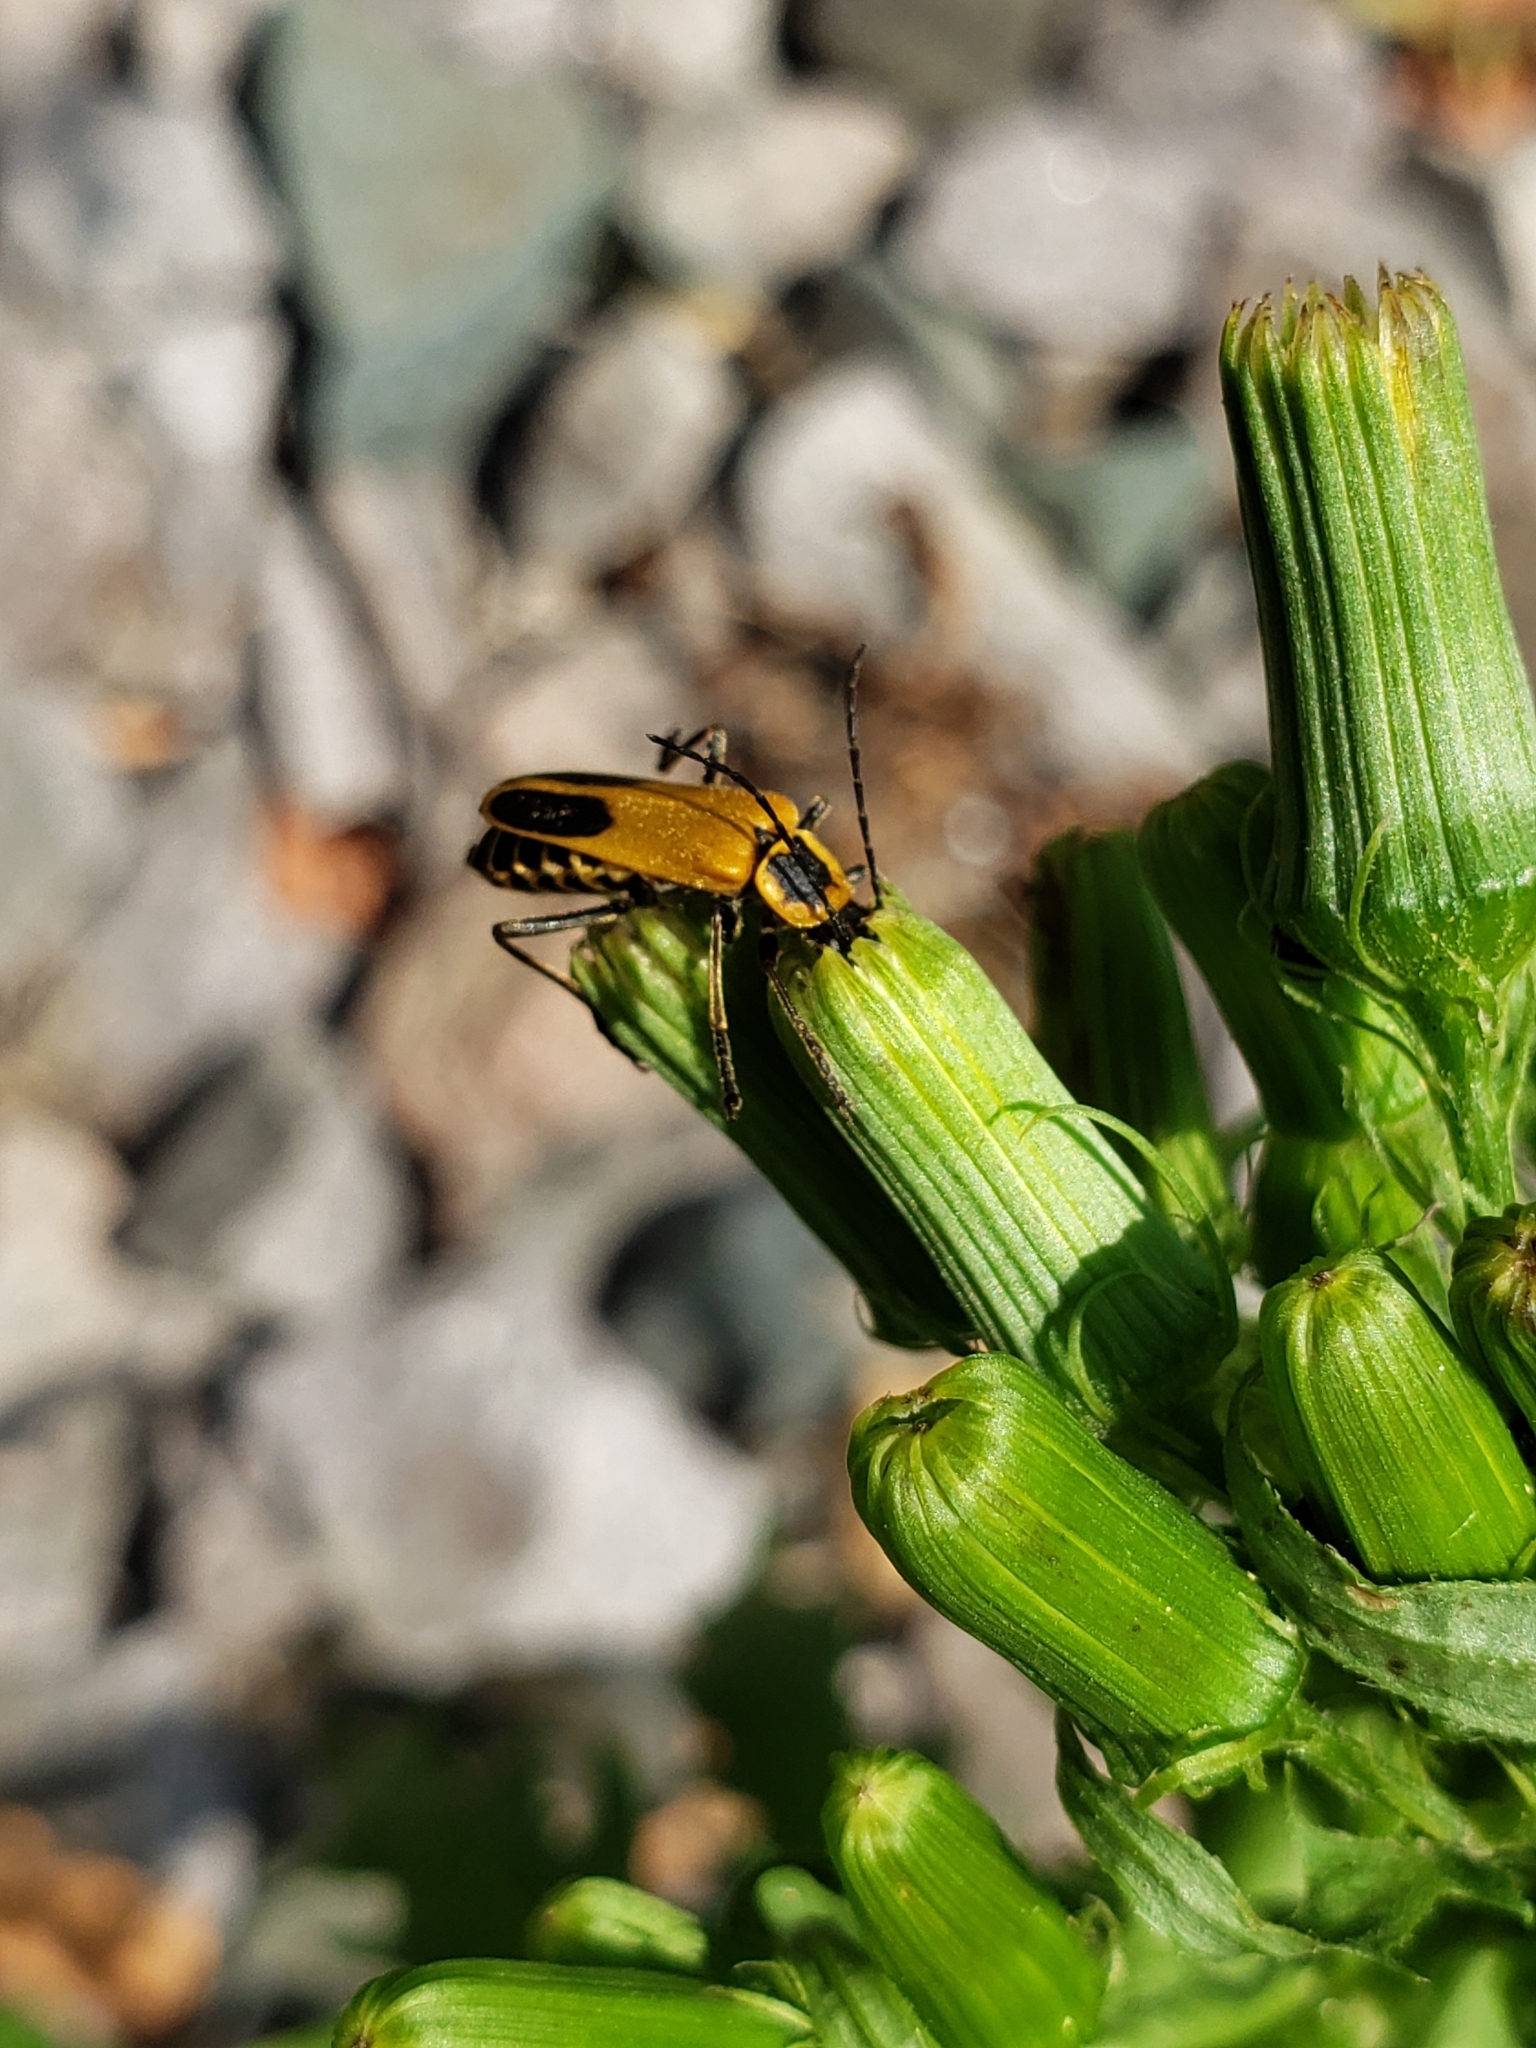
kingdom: Animalia
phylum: Arthropoda
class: Insecta
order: Coleoptera
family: Cantharidae
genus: Chauliognathus
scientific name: Chauliognathus pensylvanicus
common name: Goldenrod soldier beetle
